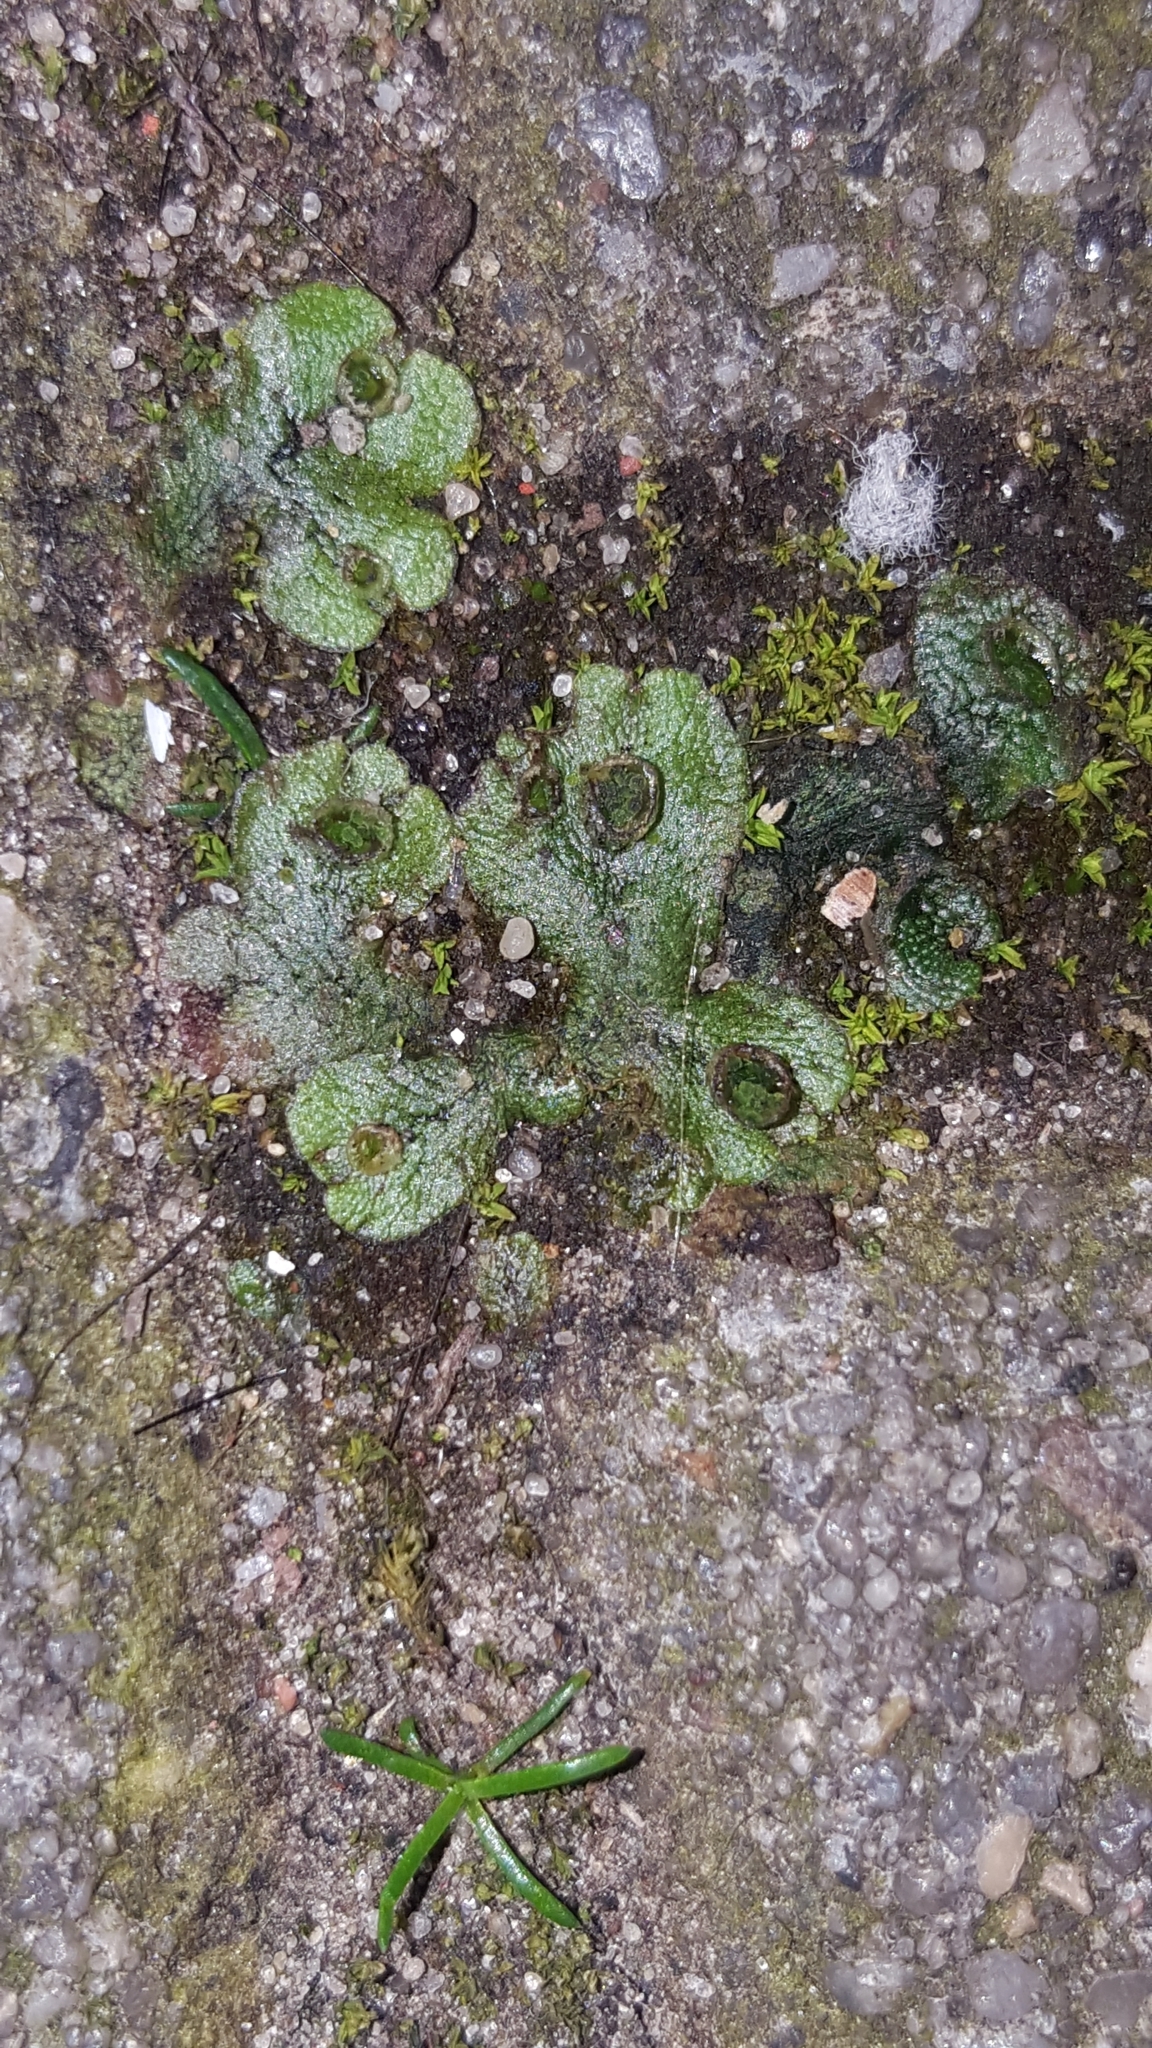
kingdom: Plantae
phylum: Marchantiophyta
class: Marchantiopsida
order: Marchantiales
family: Marchantiaceae
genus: Marchantia
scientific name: Marchantia polymorpha
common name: Common liverwort
